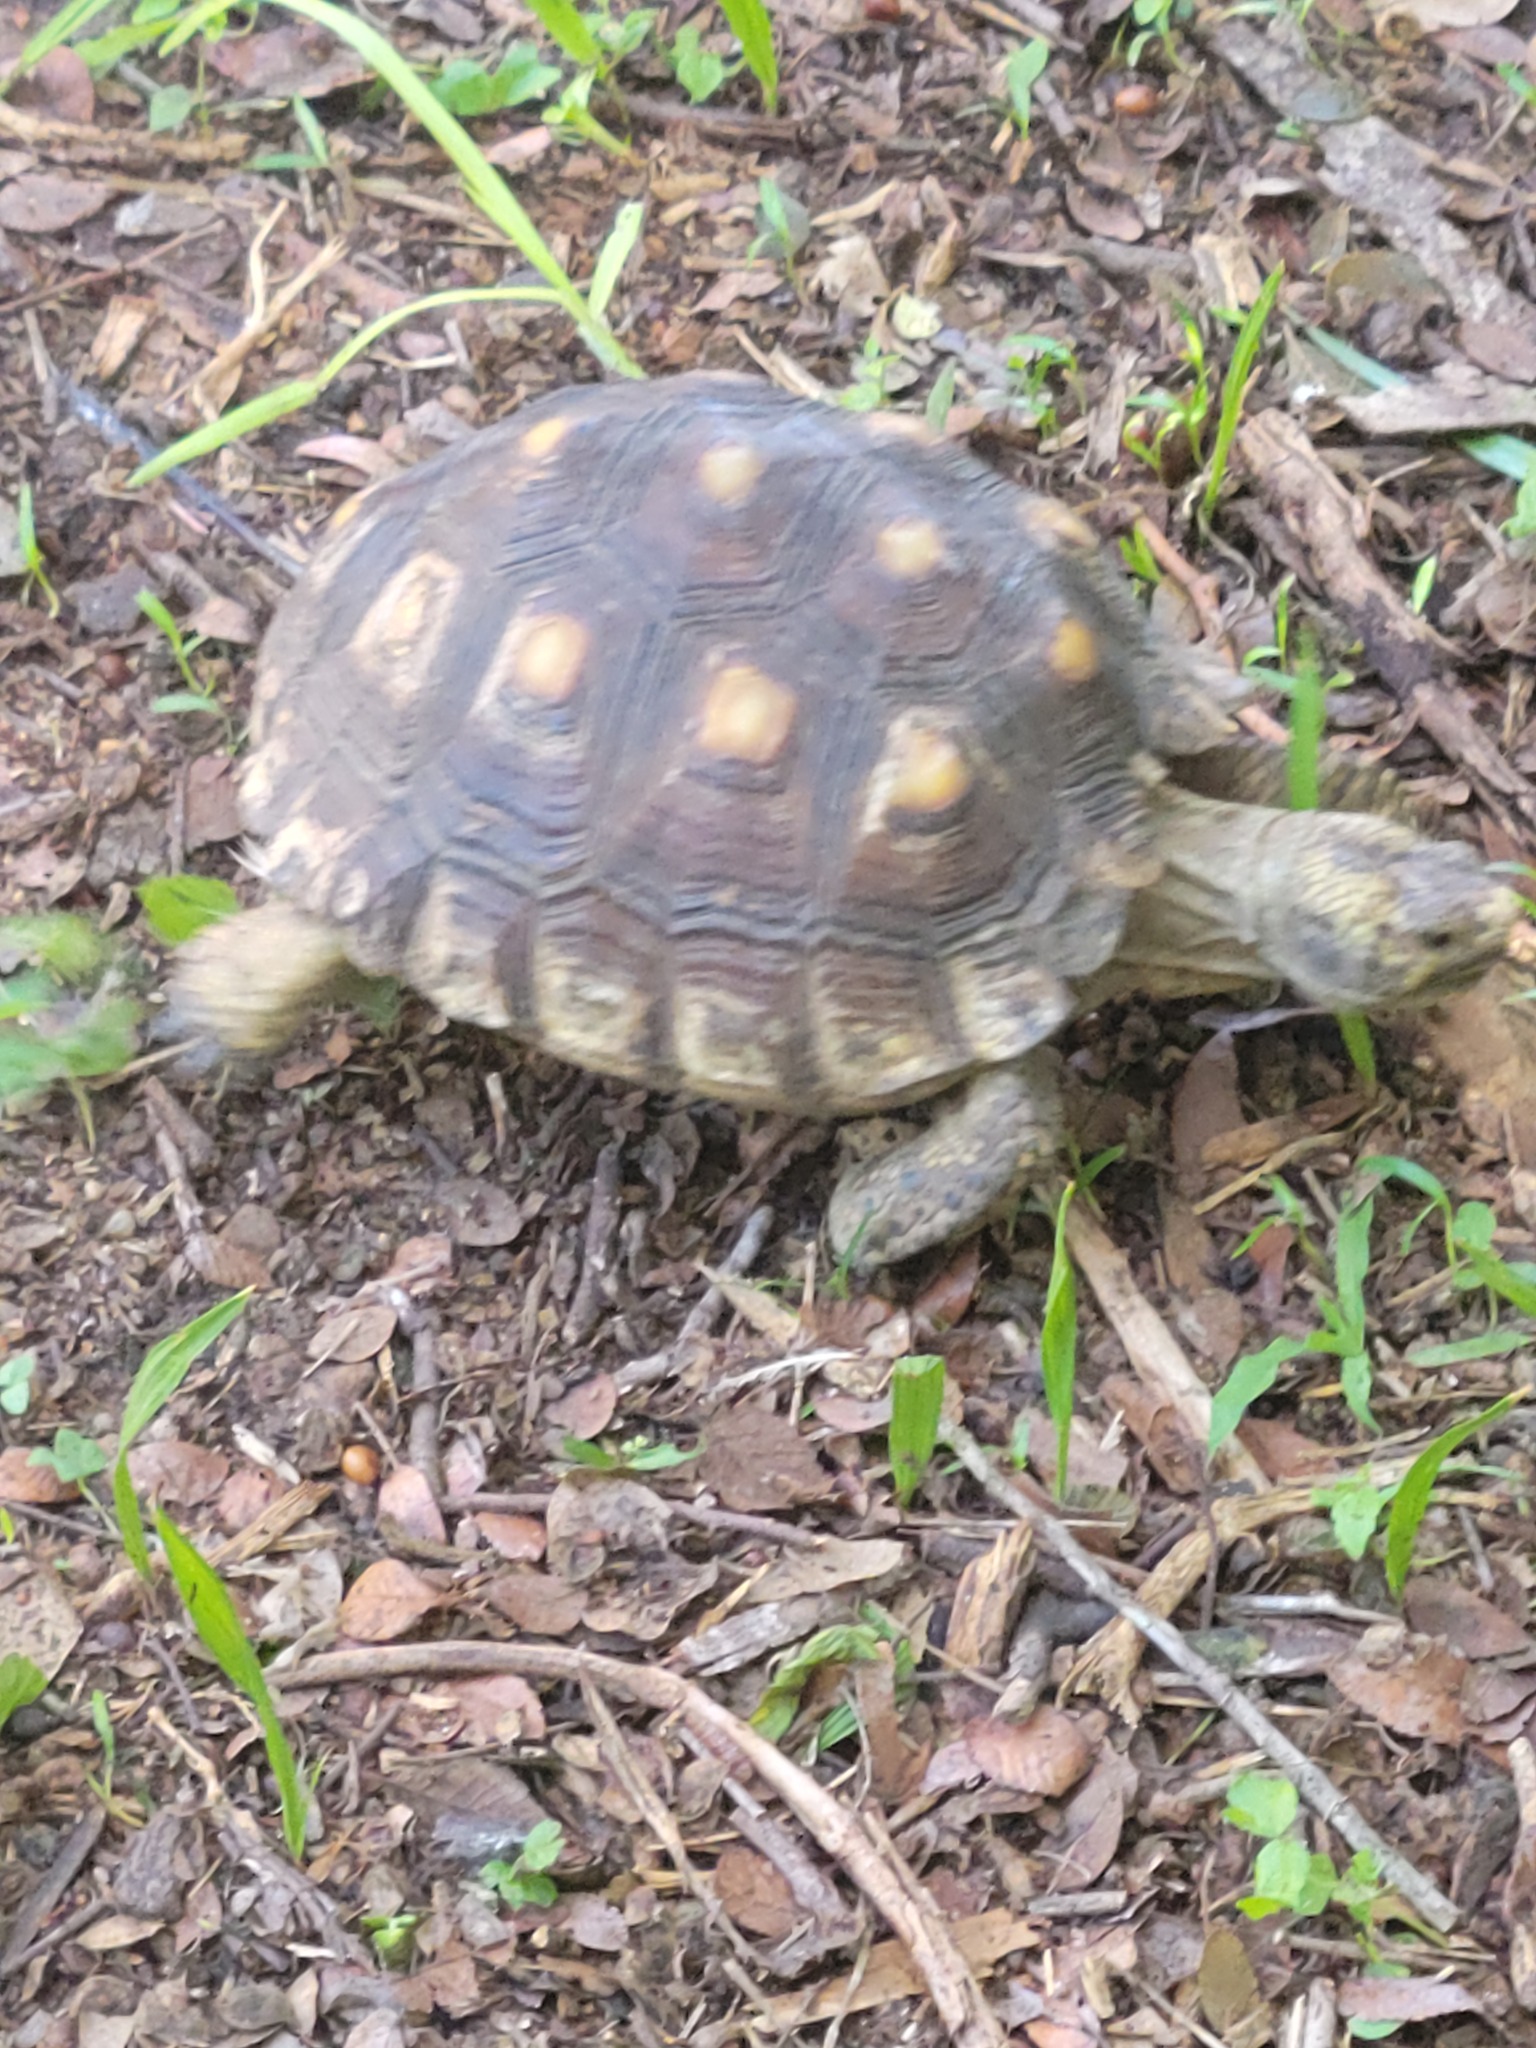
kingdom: Animalia
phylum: Chordata
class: Testudines
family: Testudinidae
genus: Gopherus
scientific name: Gopherus berlandieri
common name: Texas (gopher )tortoise
